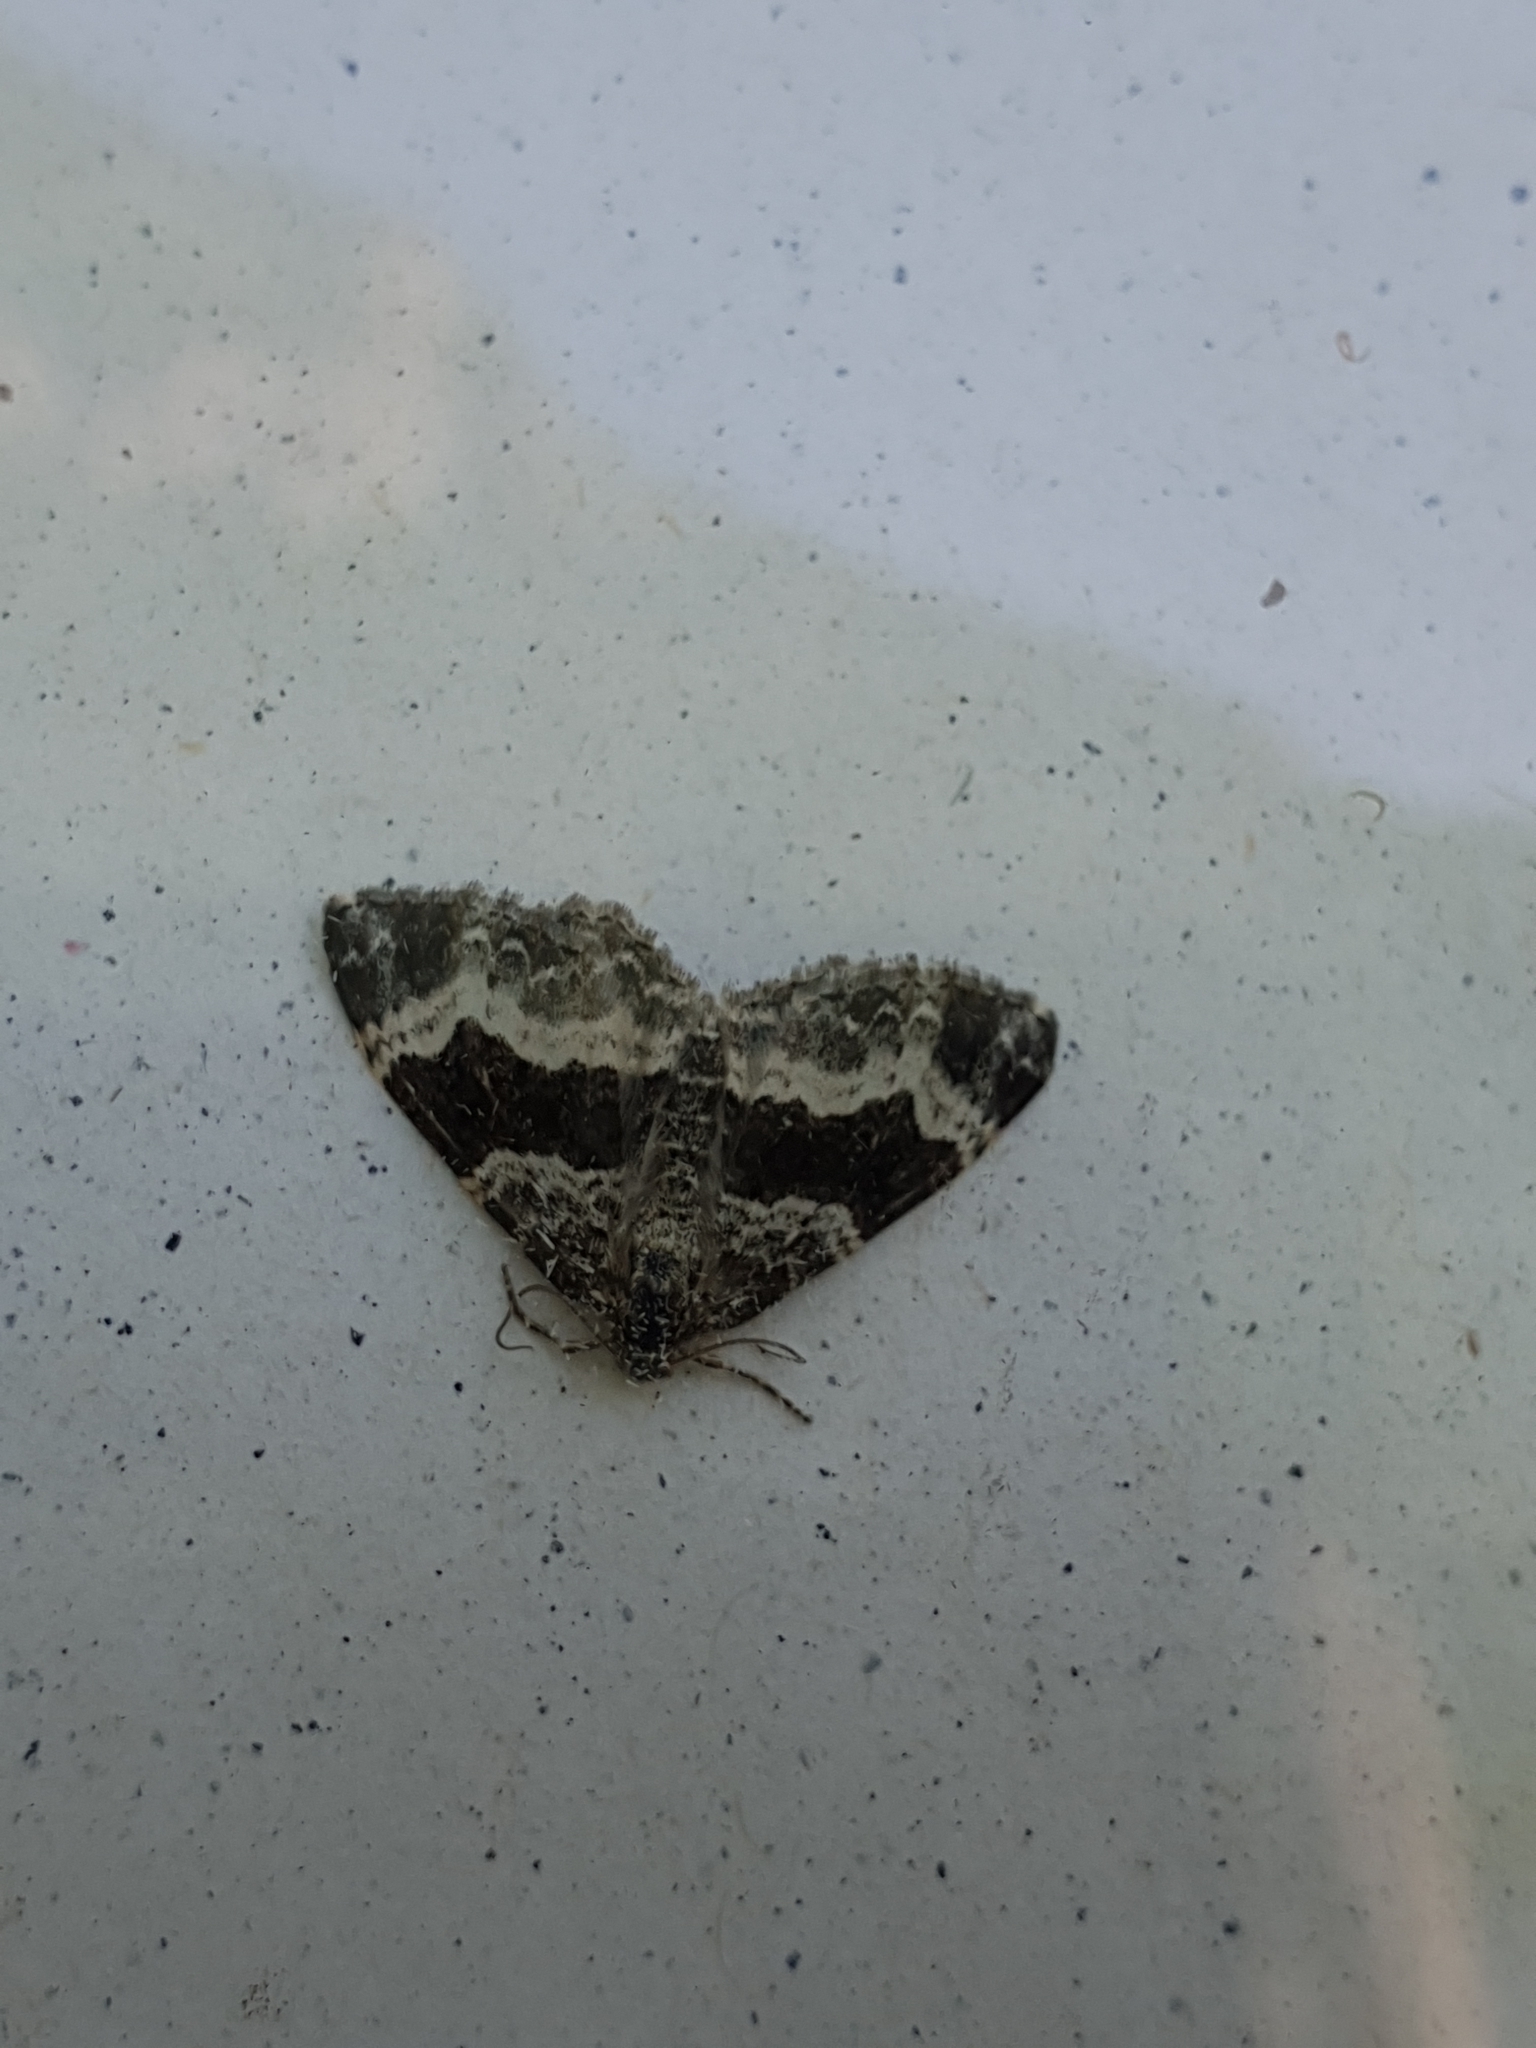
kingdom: Animalia
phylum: Arthropoda
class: Insecta
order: Lepidoptera
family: Geometridae
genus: Epirrhoe
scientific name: Epirrhoe alternata
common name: Common carpet
